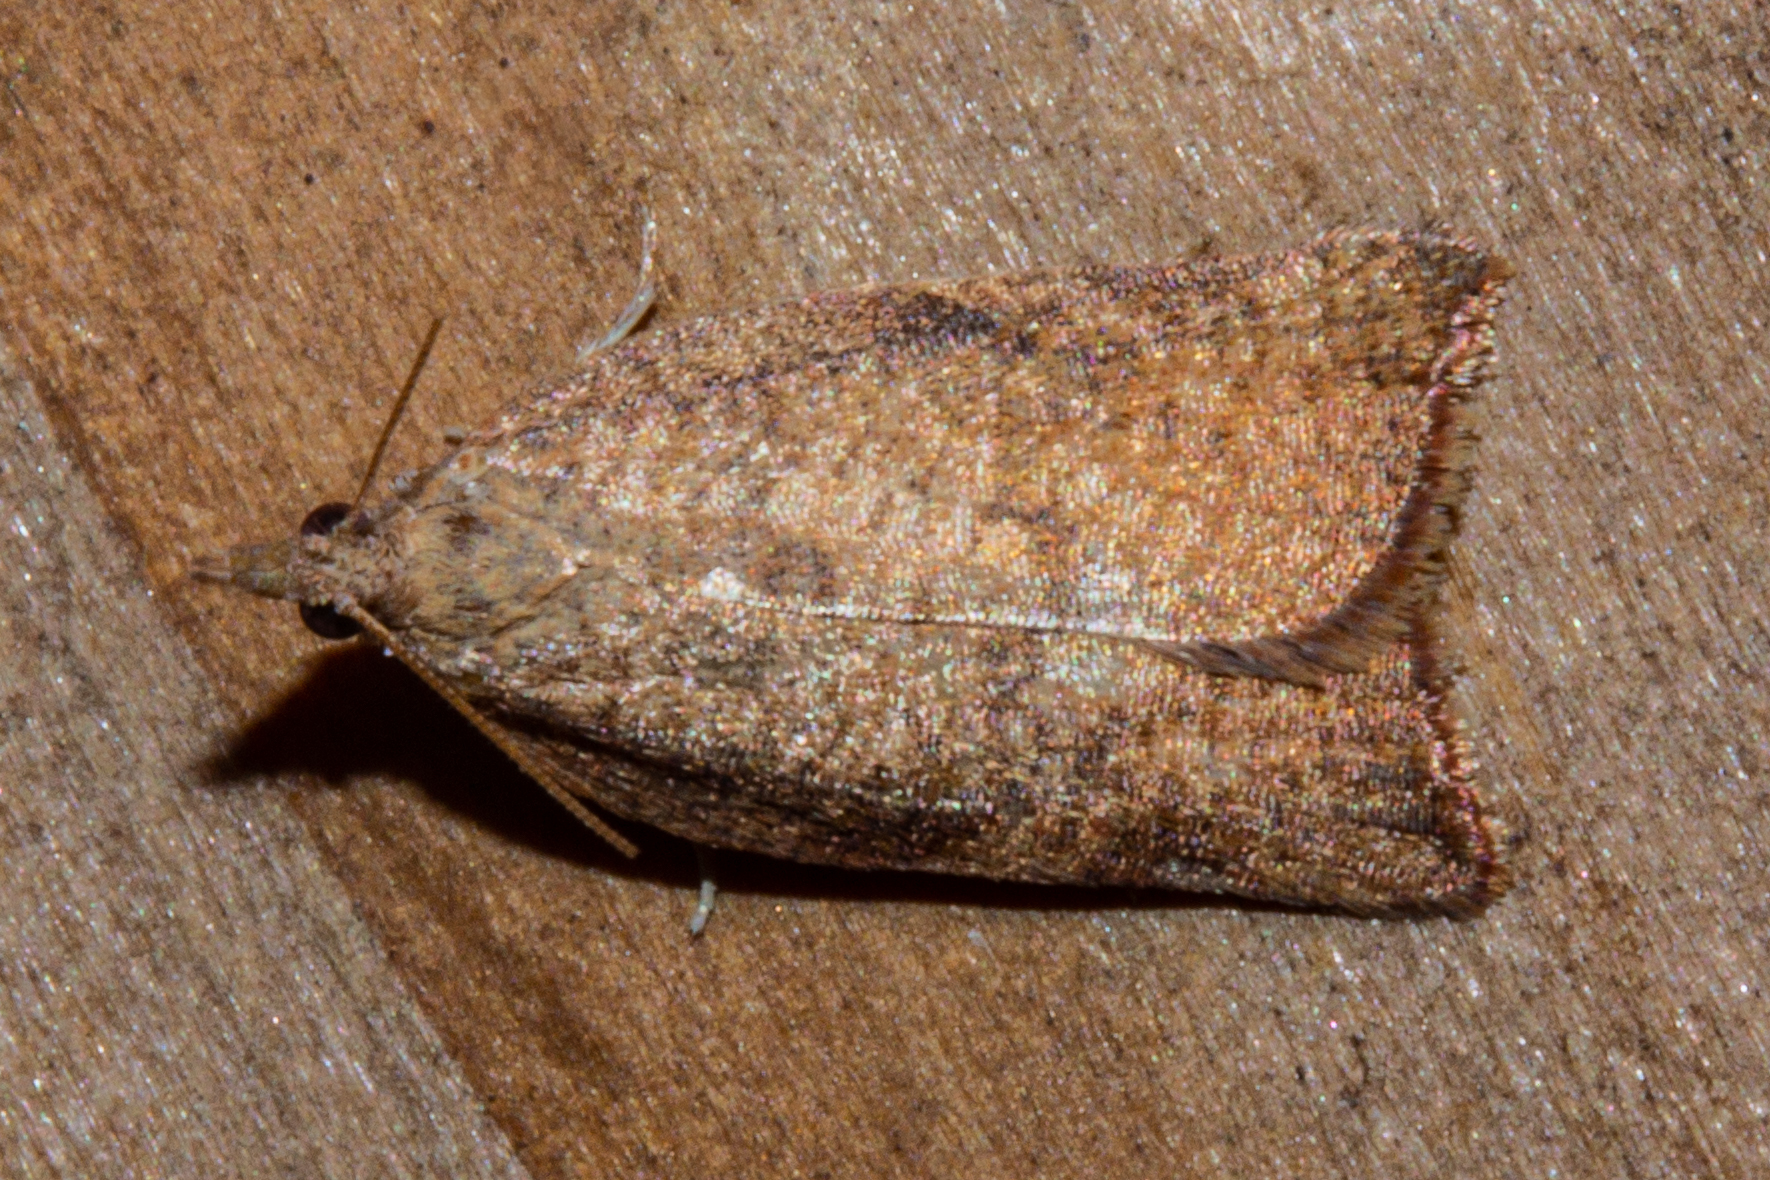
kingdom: Animalia
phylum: Arthropoda
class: Insecta
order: Lepidoptera
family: Tortricidae
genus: Catamacta
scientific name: Catamacta gavisana
